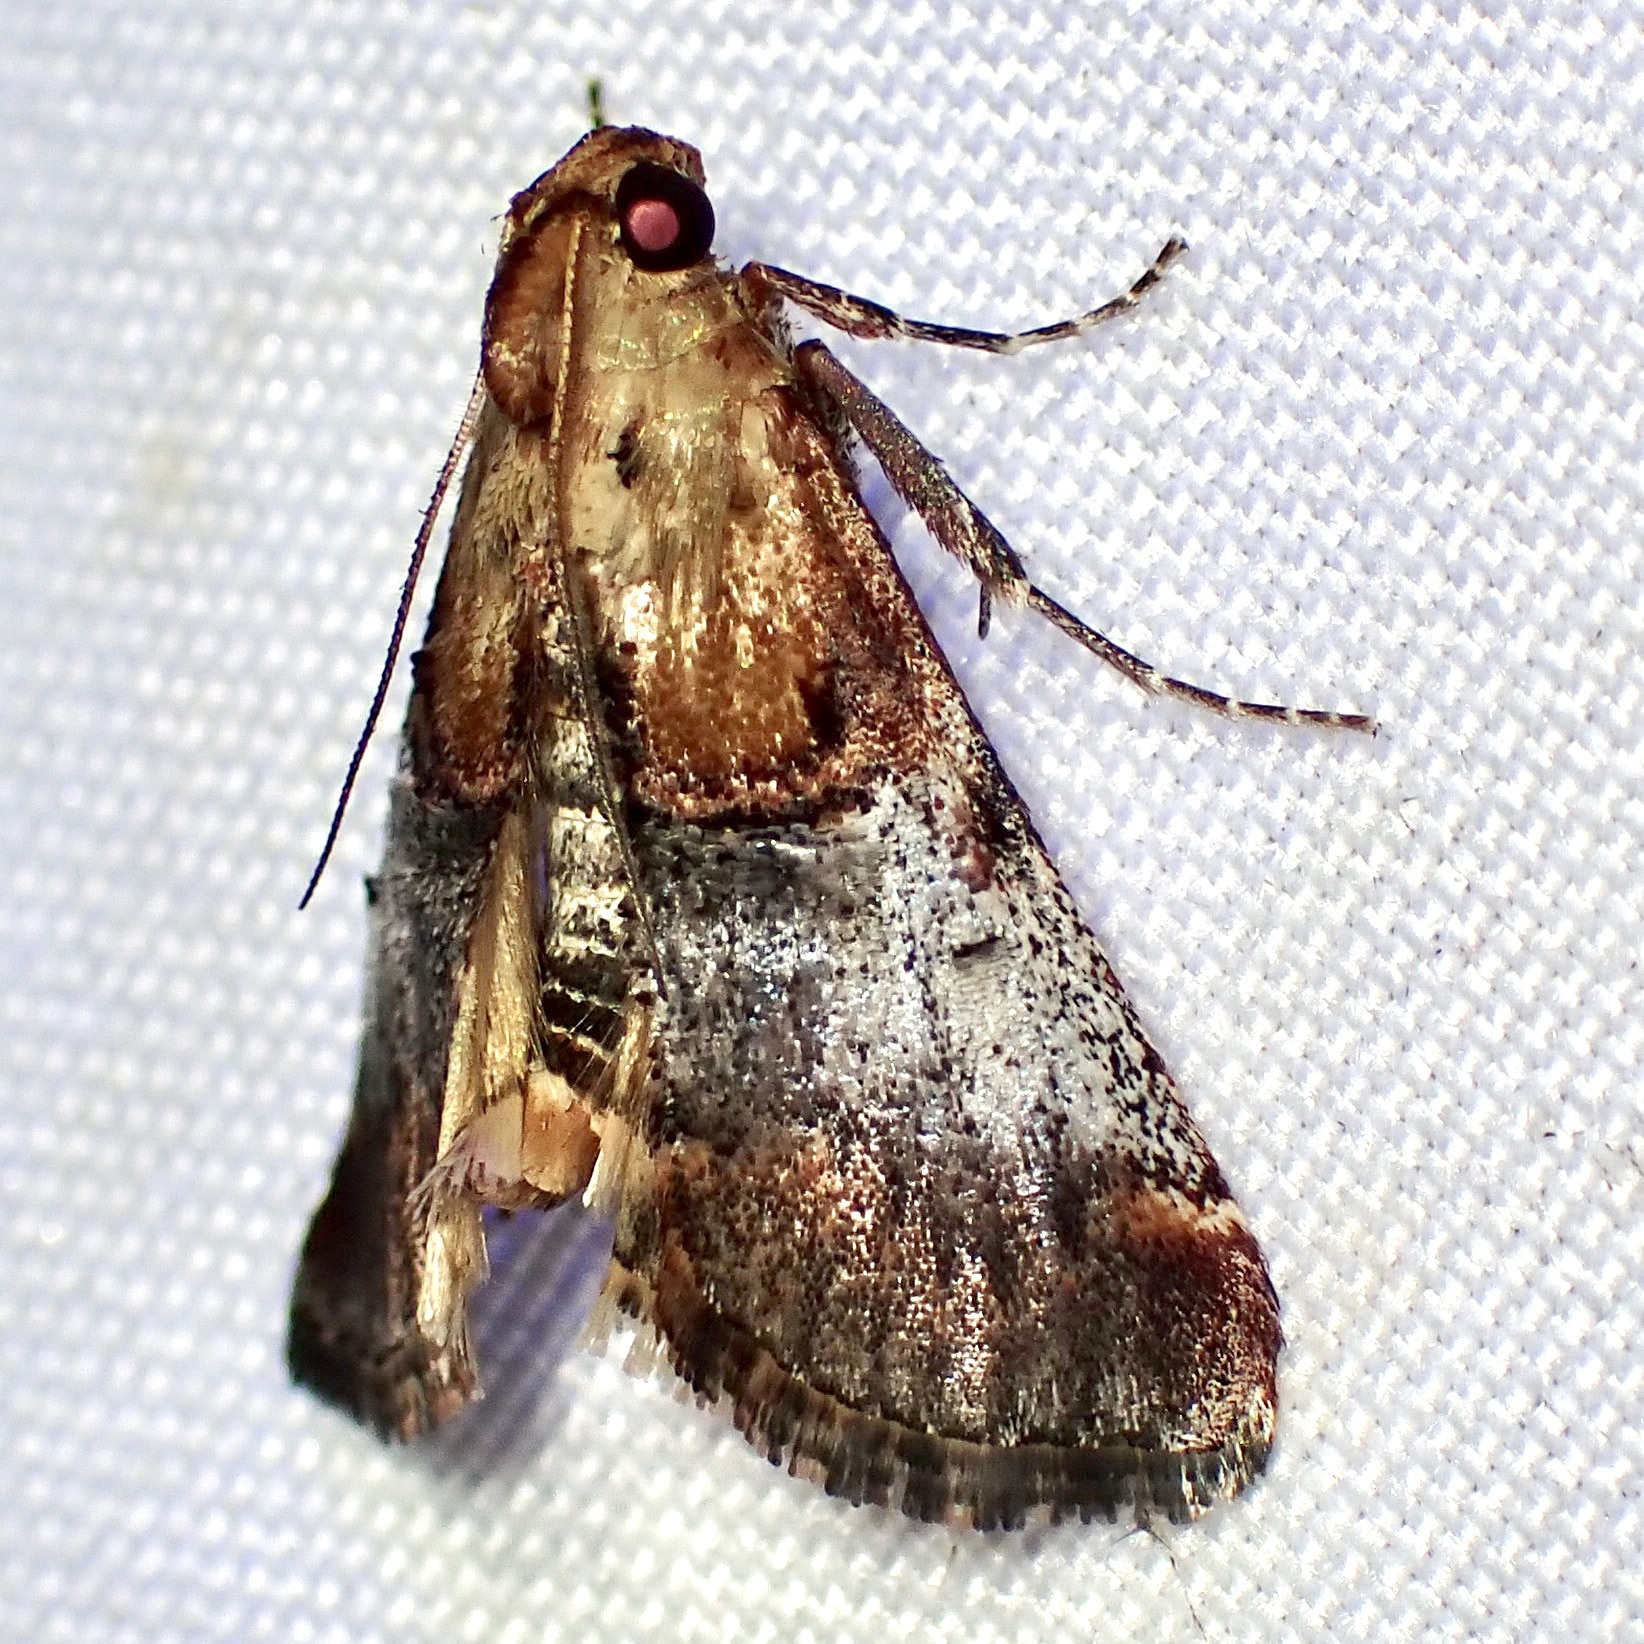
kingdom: Animalia
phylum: Arthropoda
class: Insecta
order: Lepidoptera
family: Pyralidae
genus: Cacozelia
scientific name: Cacozelia basiochrealis
